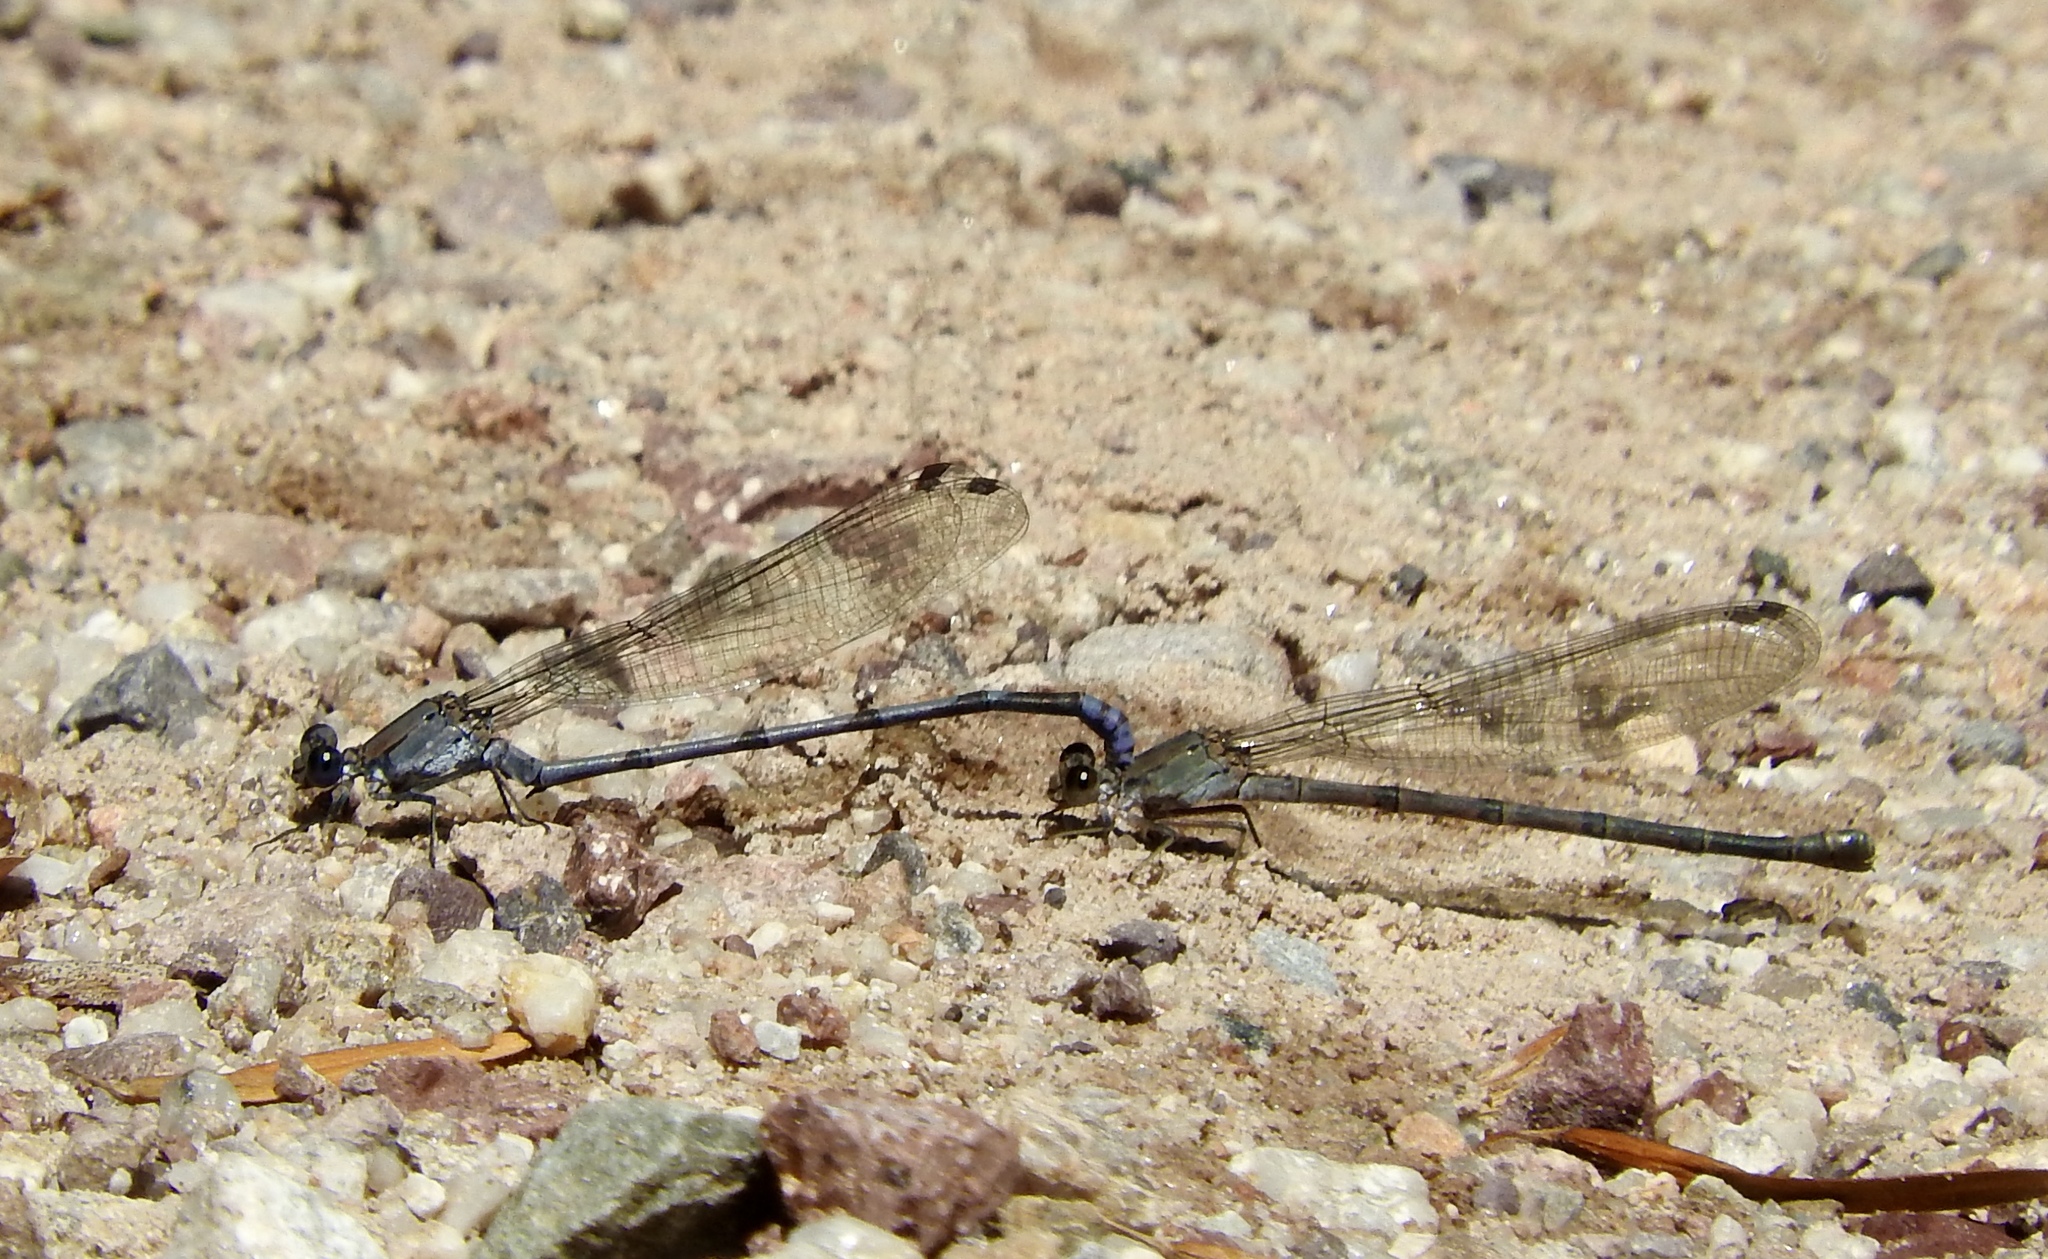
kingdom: Animalia
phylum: Arthropoda
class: Insecta
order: Odonata
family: Coenagrionidae
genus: Argia
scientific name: Argia tonto
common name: Tonto dancer
